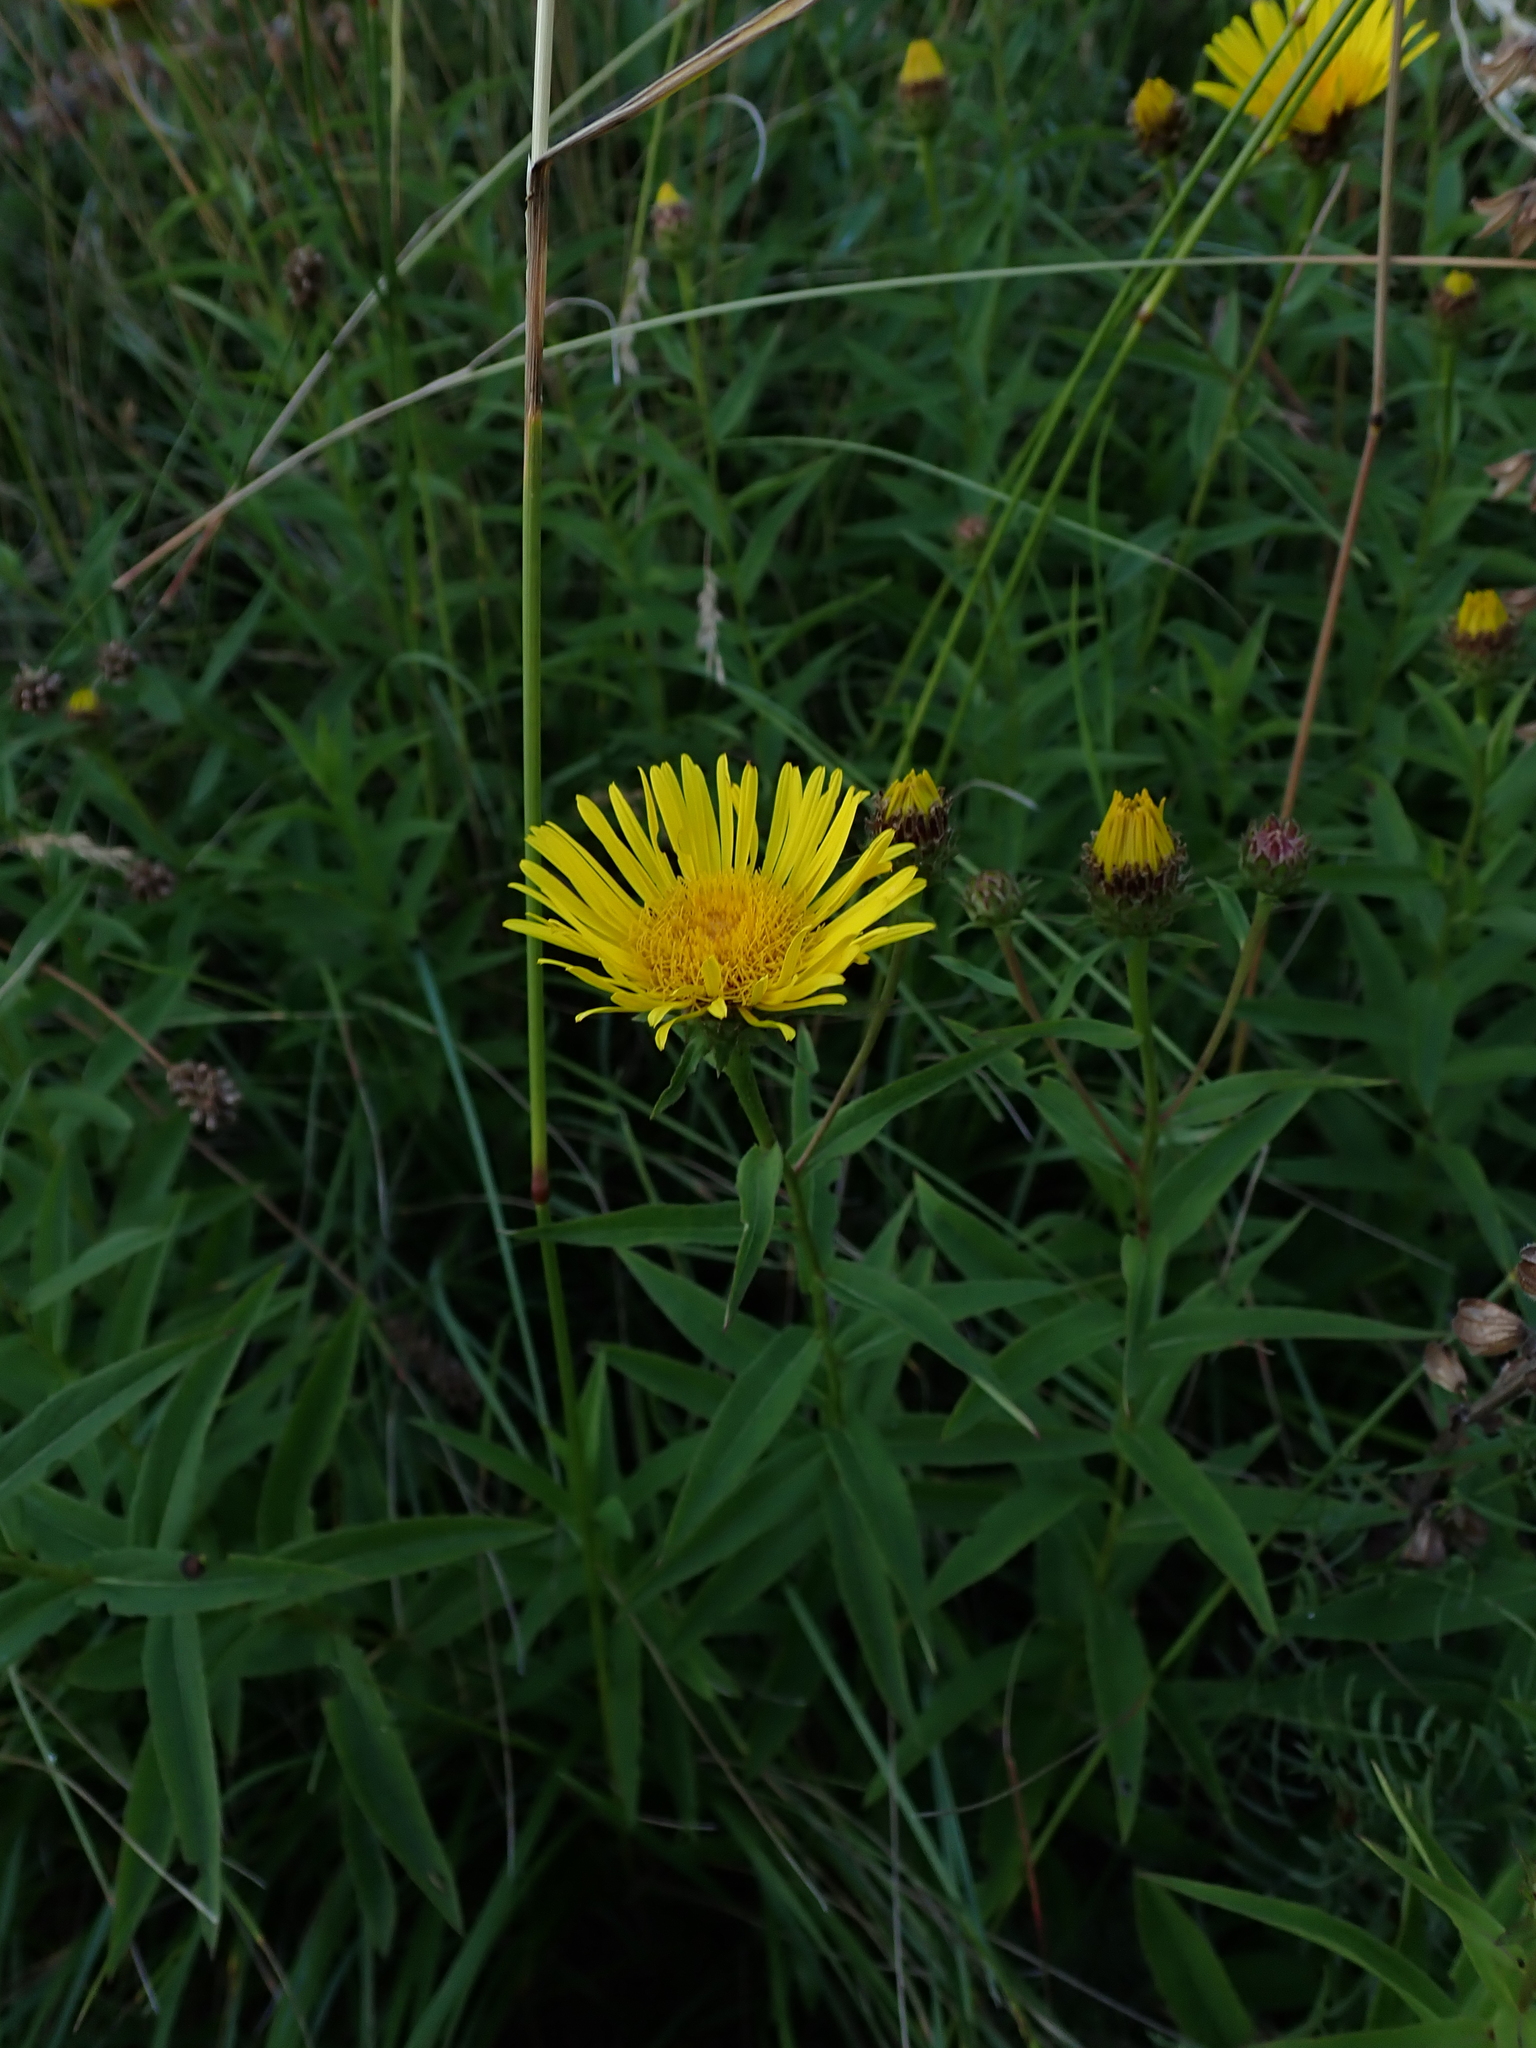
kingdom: Plantae
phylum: Tracheophyta
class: Magnoliopsida
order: Asterales
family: Asteraceae
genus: Pentanema
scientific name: Pentanema salicinum
